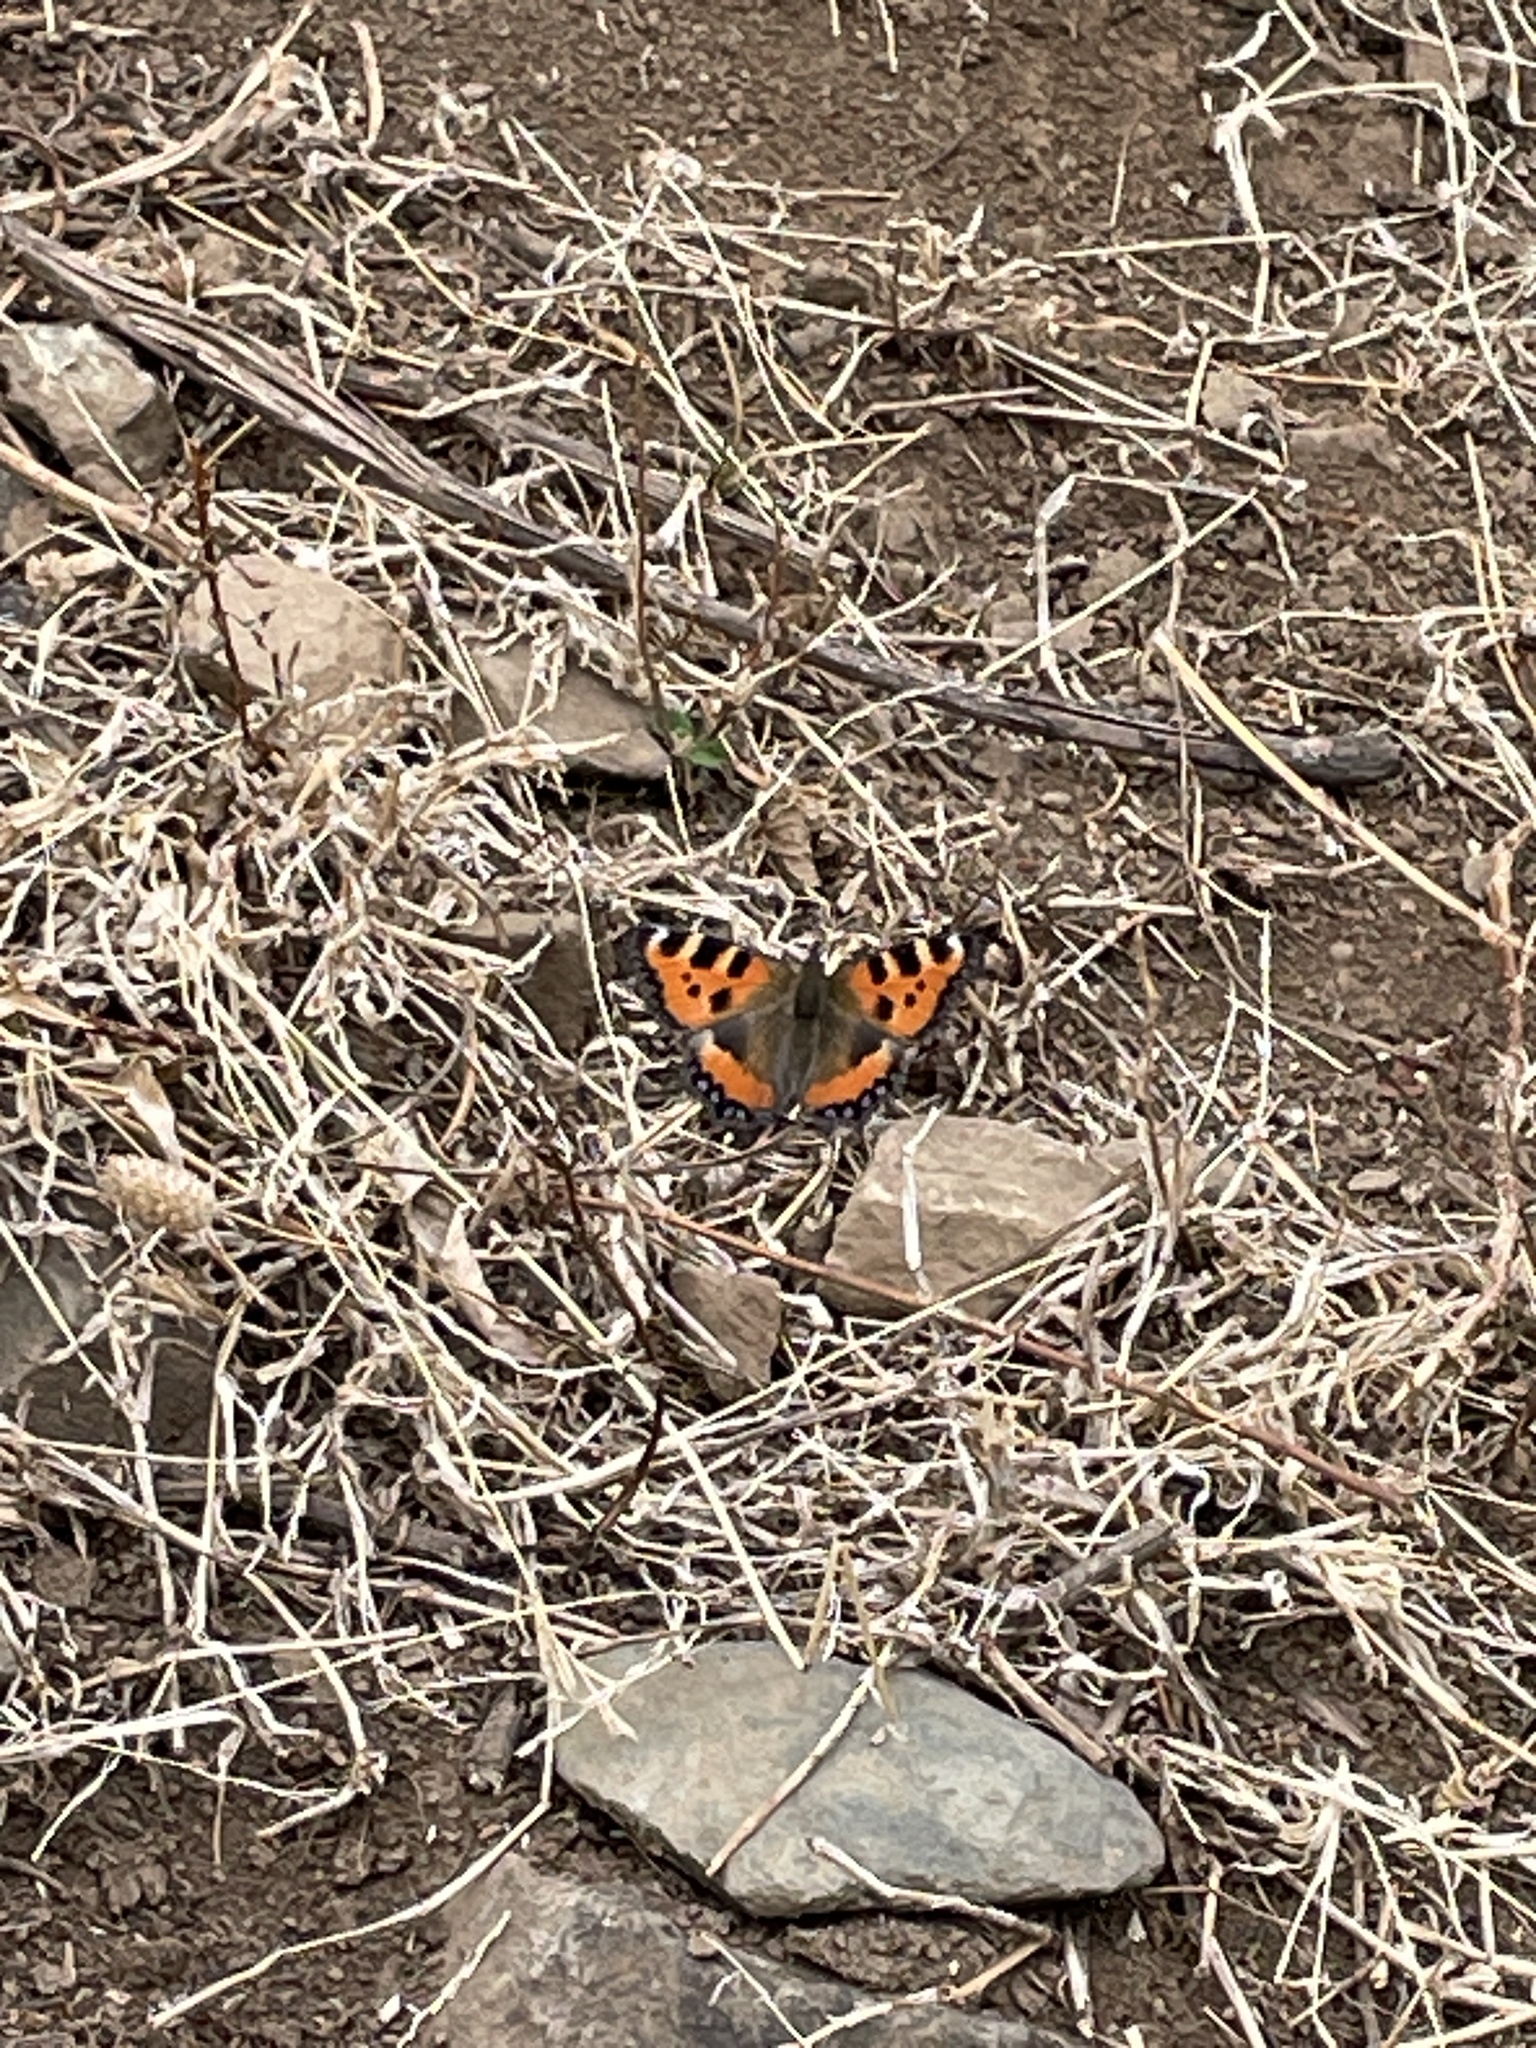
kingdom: Animalia
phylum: Arthropoda
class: Insecta
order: Lepidoptera
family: Nymphalidae
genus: Aglais
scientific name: Aglais urticae
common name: Small tortoiseshell
